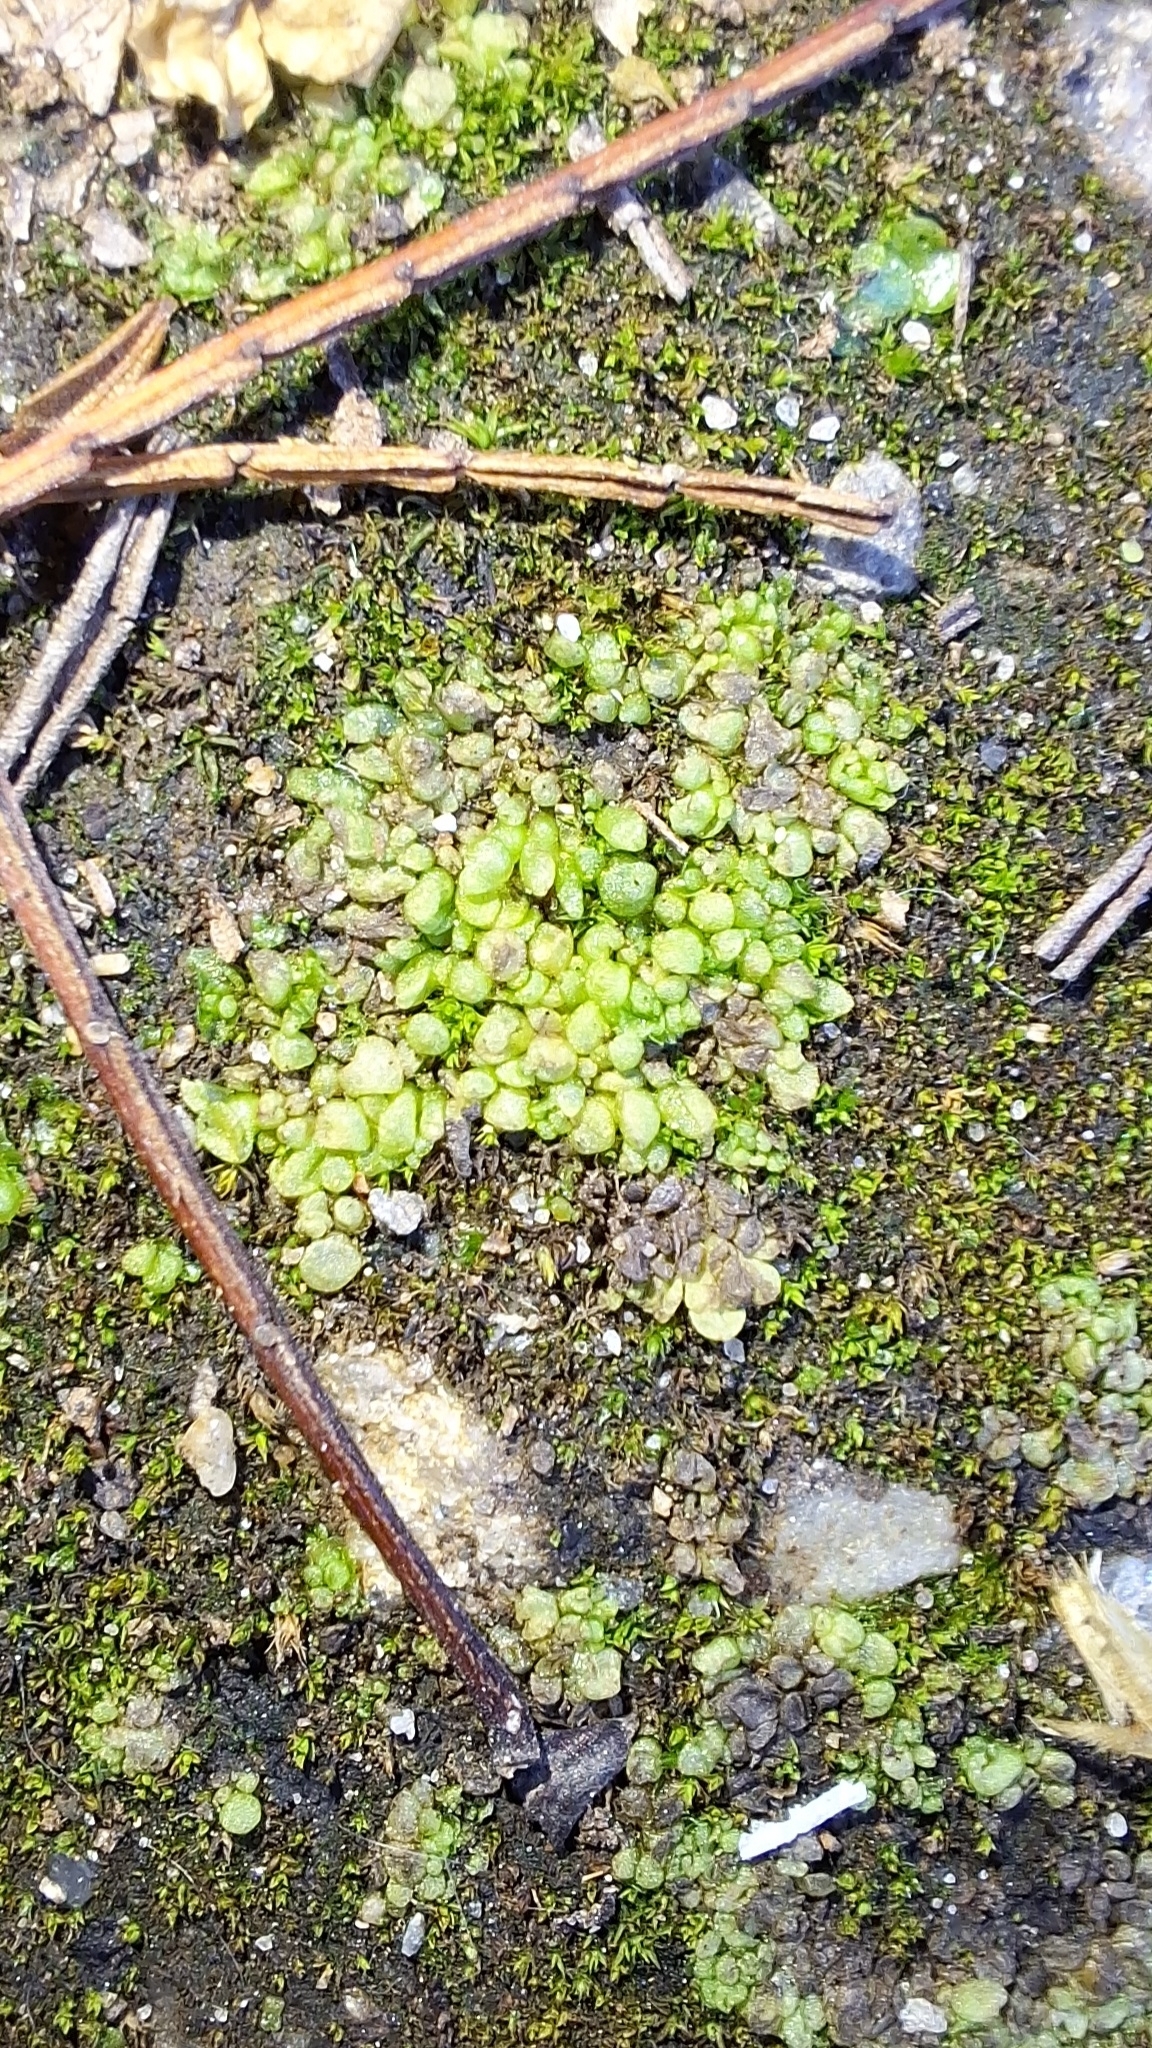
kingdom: Plantae
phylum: Marchantiophyta
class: Marchantiopsida
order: Sphaerocarpales
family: Sphaerocarpaceae
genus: Sphaerocarpos
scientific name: Sphaerocarpos texanus
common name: Texas balloonwort
